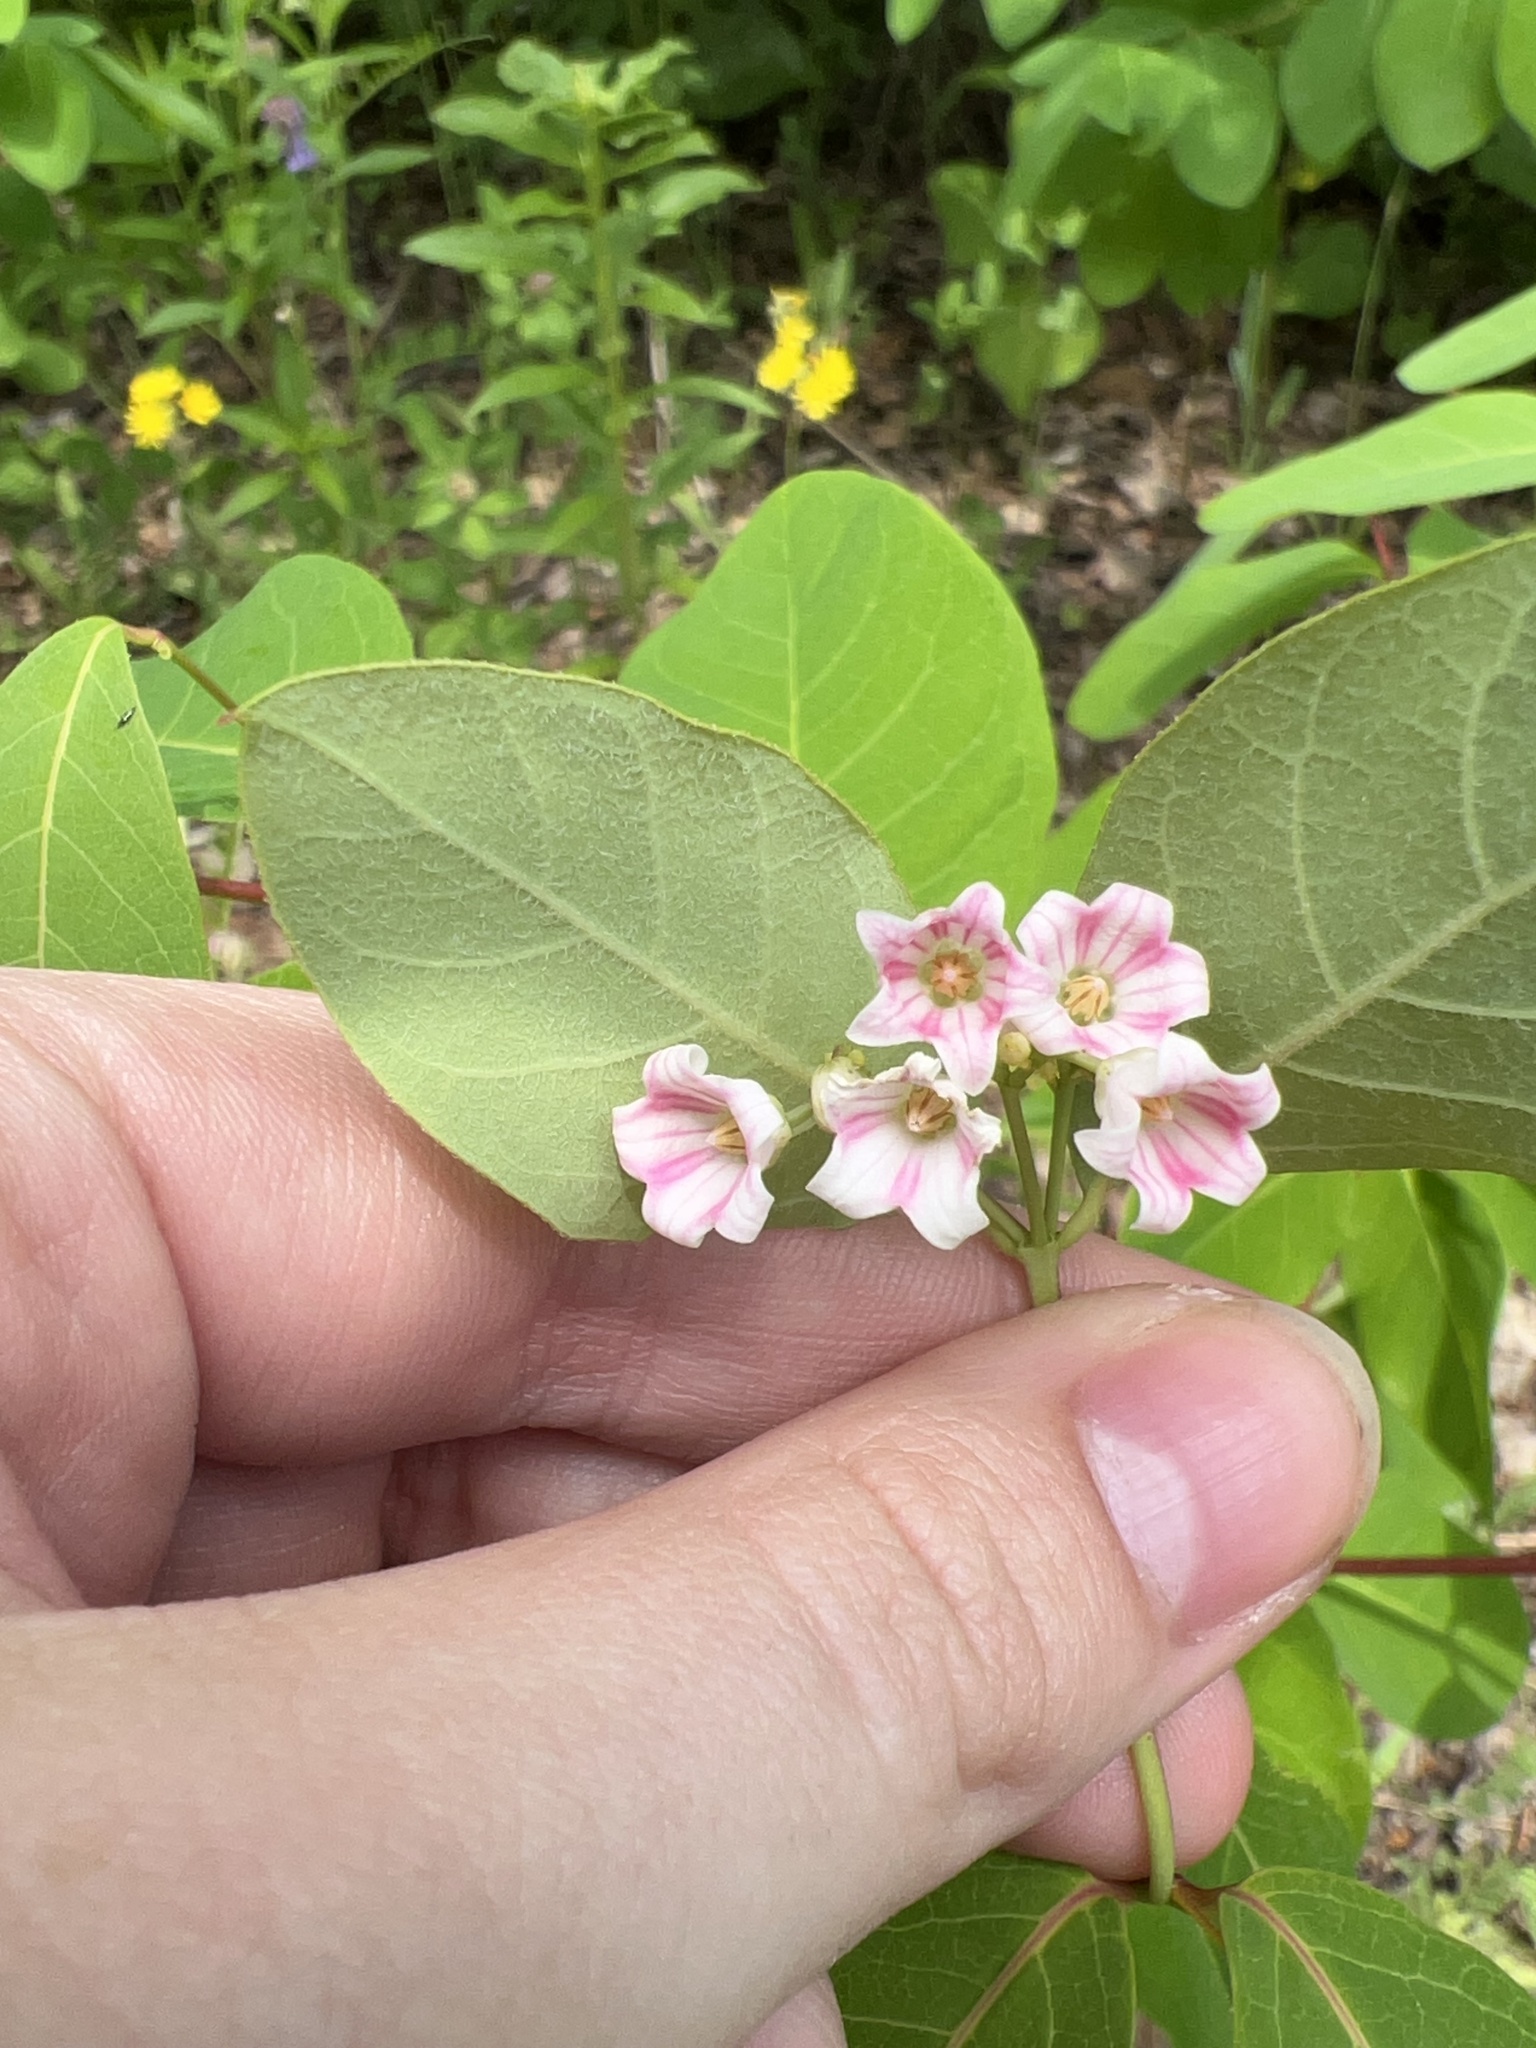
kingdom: Plantae
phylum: Tracheophyta
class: Magnoliopsida
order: Gentianales
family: Apocynaceae
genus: Apocynum
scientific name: Apocynum androsaemifolium
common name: Spreading dogbane
